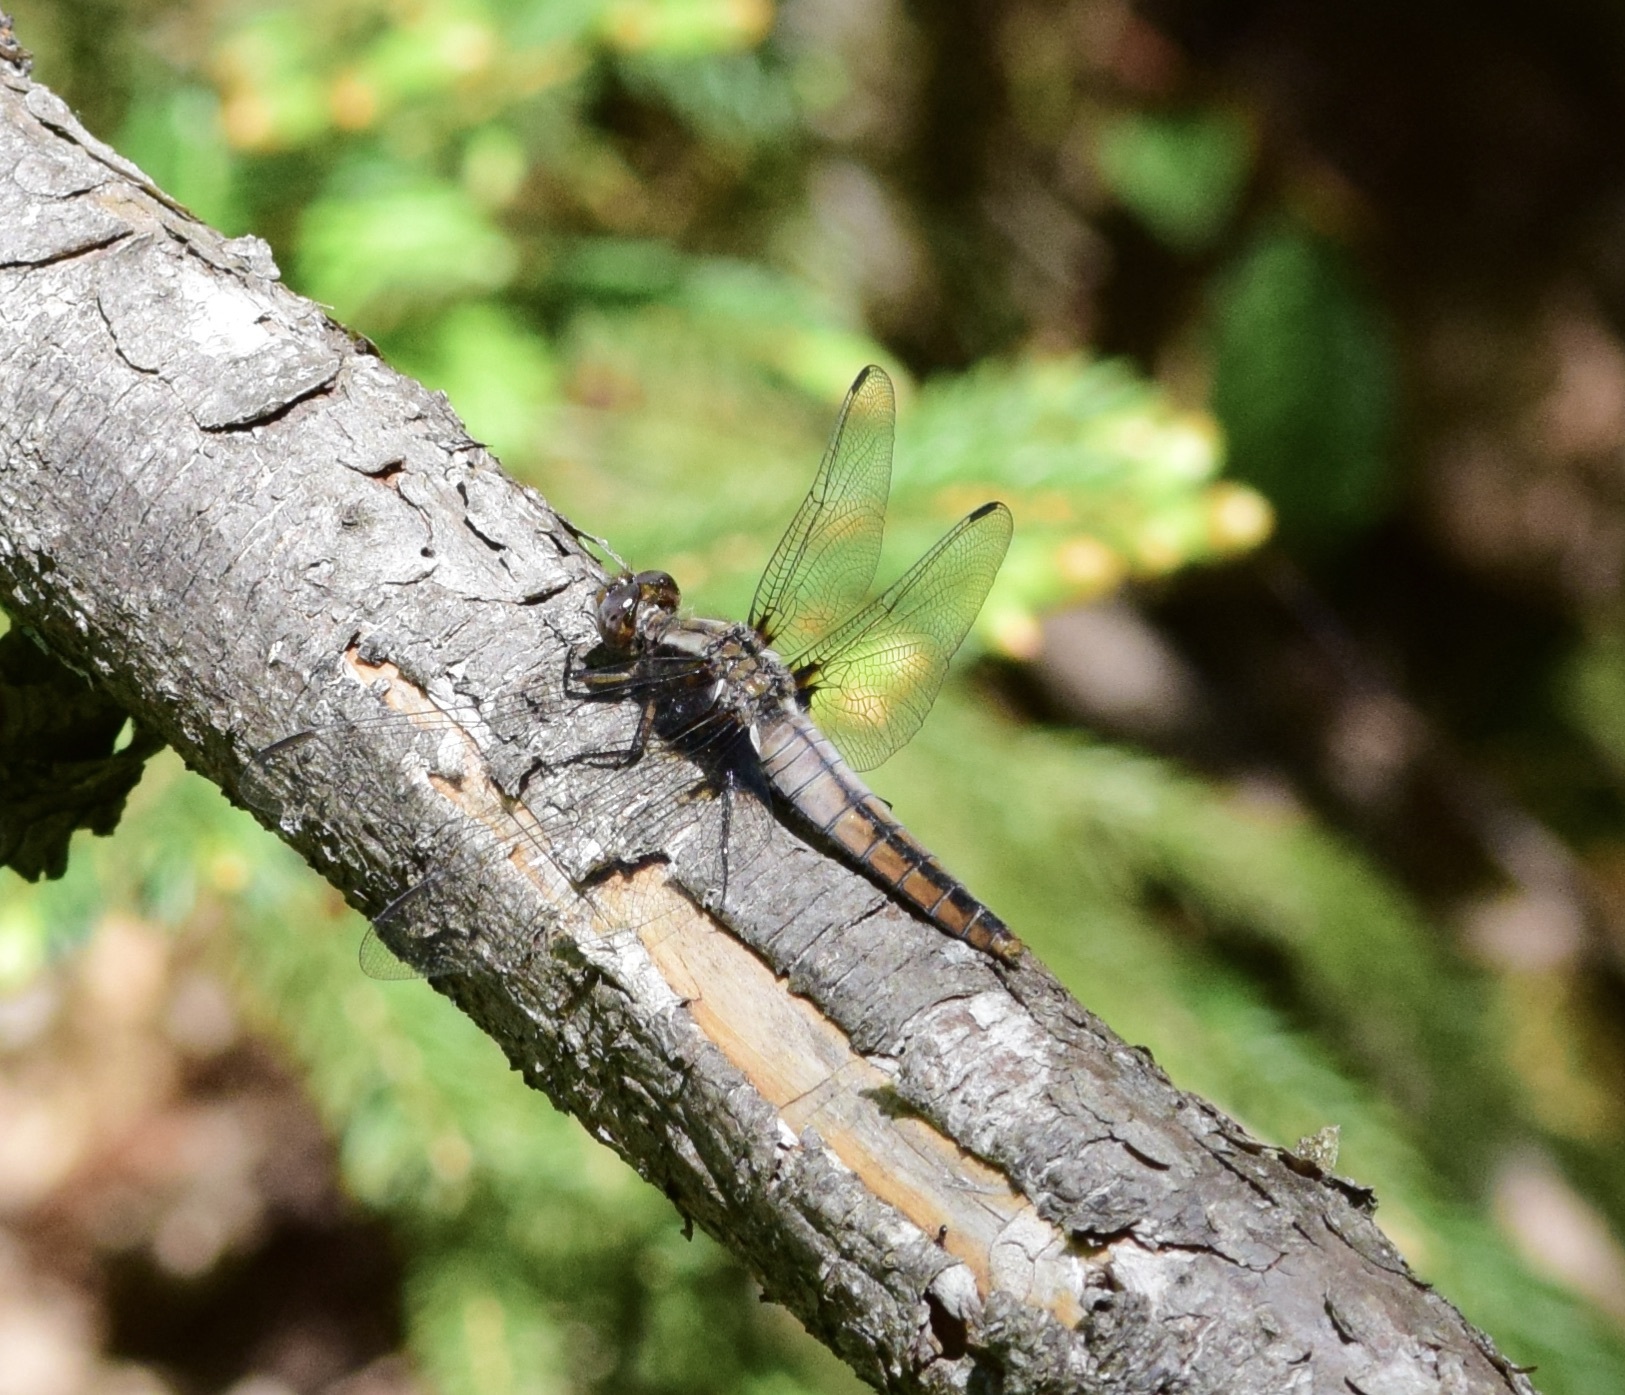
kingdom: Animalia
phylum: Arthropoda
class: Insecta
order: Odonata
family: Libellulidae
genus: Ladona
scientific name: Ladona julia
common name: Chalk-fronted corporal
